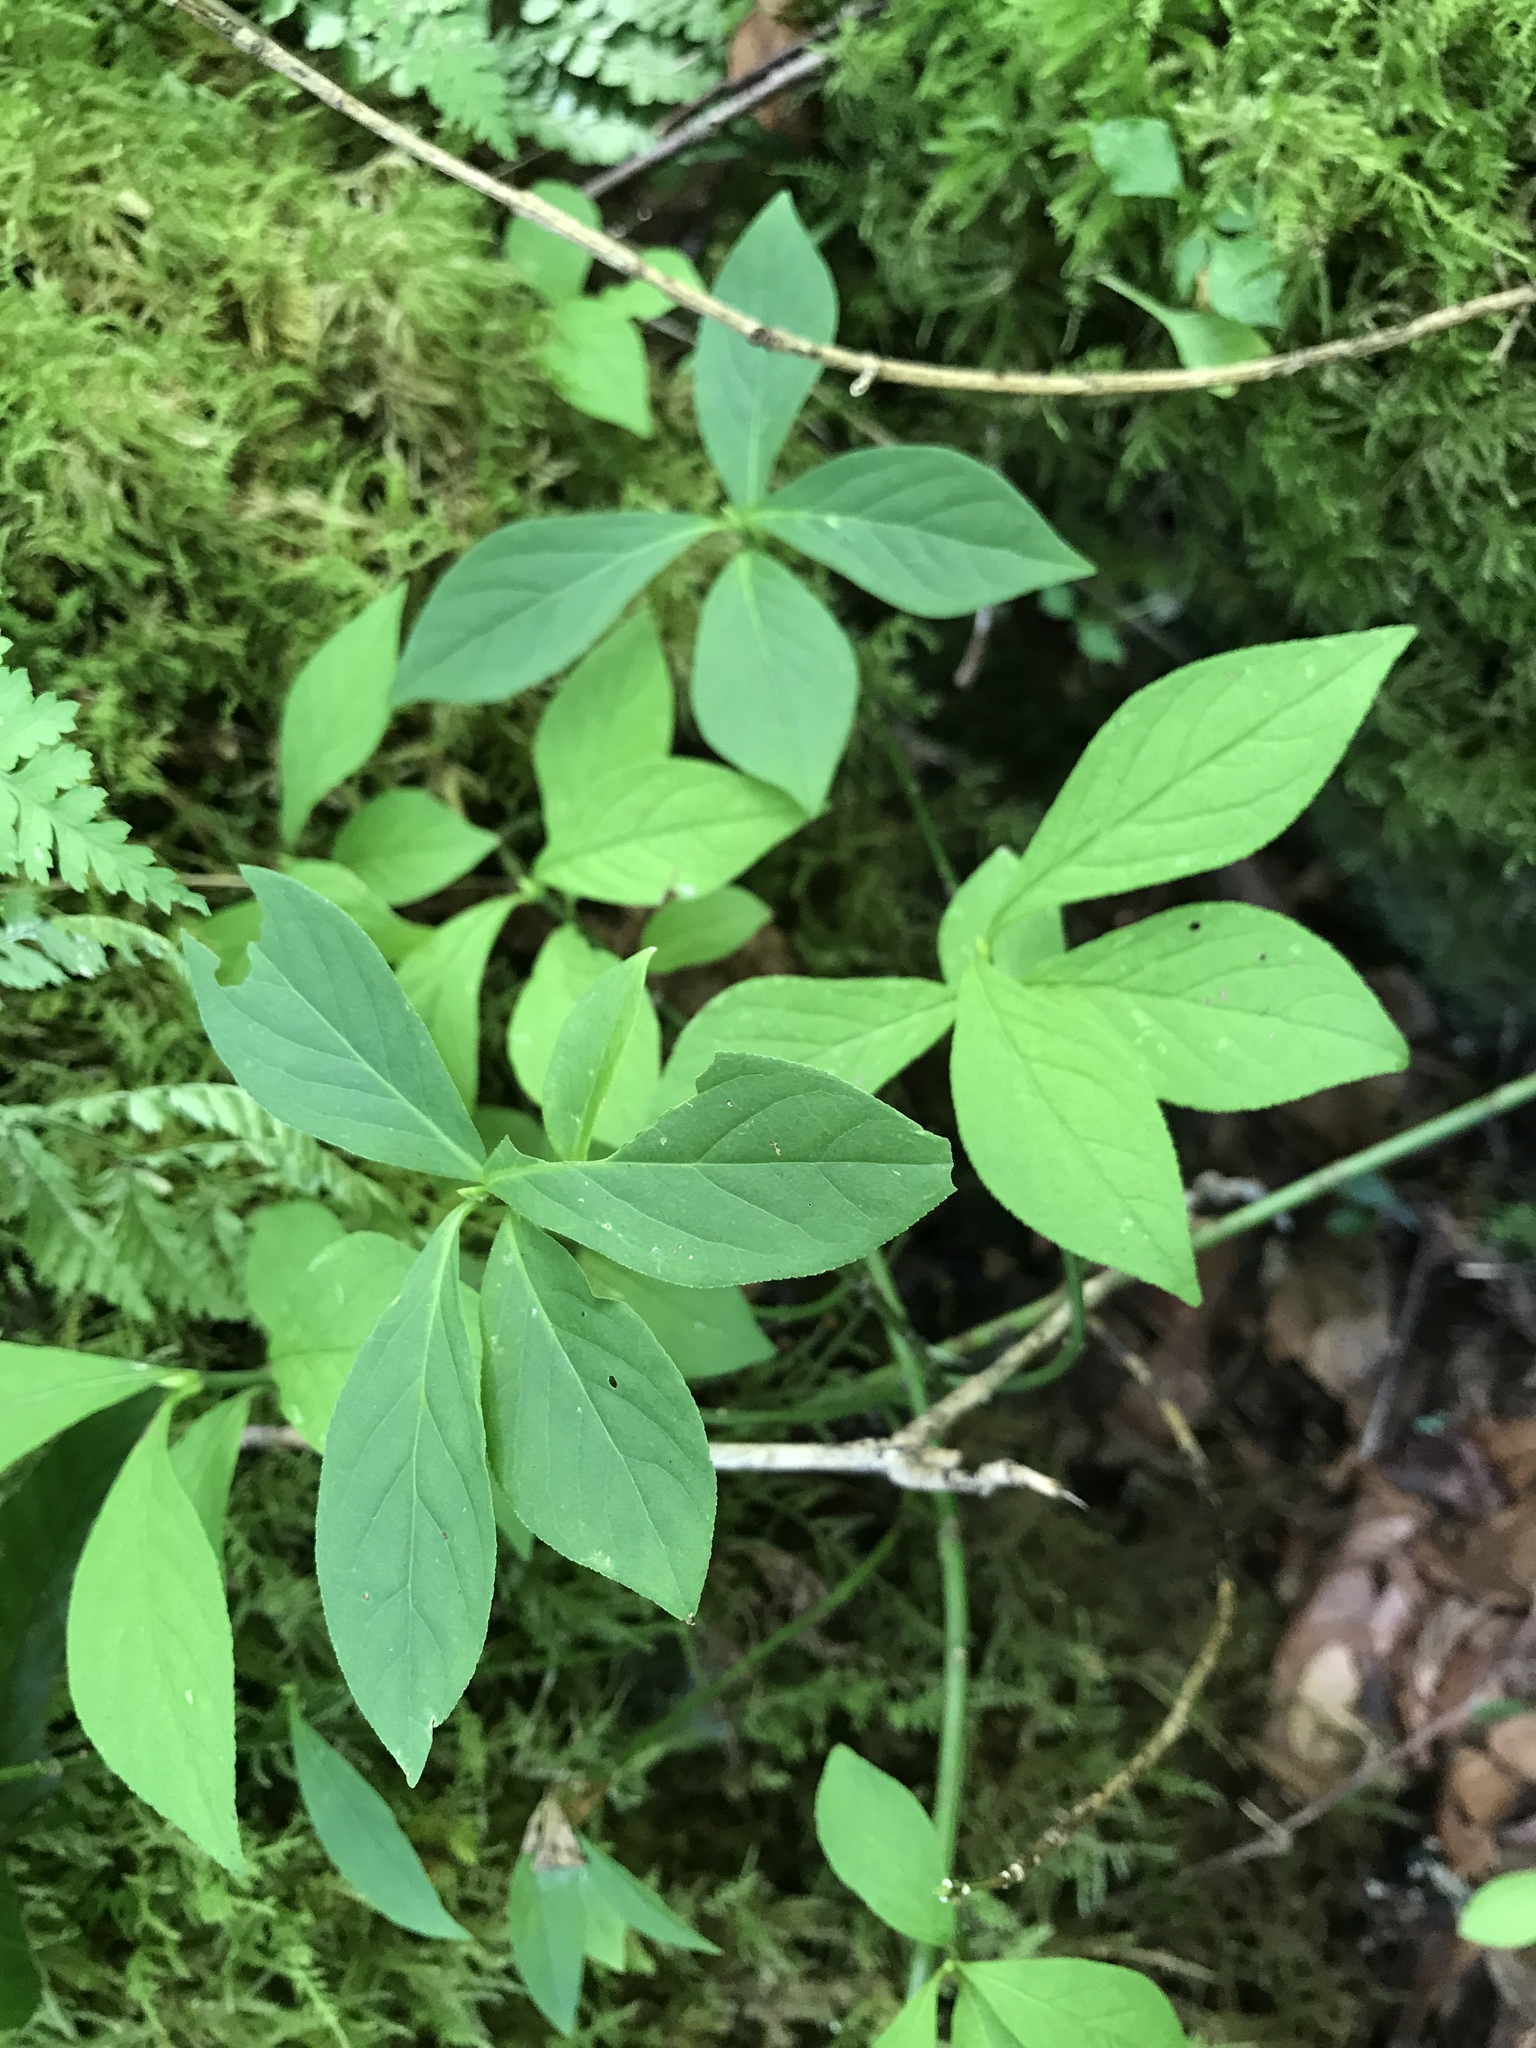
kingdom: Plantae
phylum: Tracheophyta
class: Magnoliopsida
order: Celastrales
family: Celastraceae
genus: Euonymus
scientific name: Euonymus obovatus
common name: Running strawberry-bush
